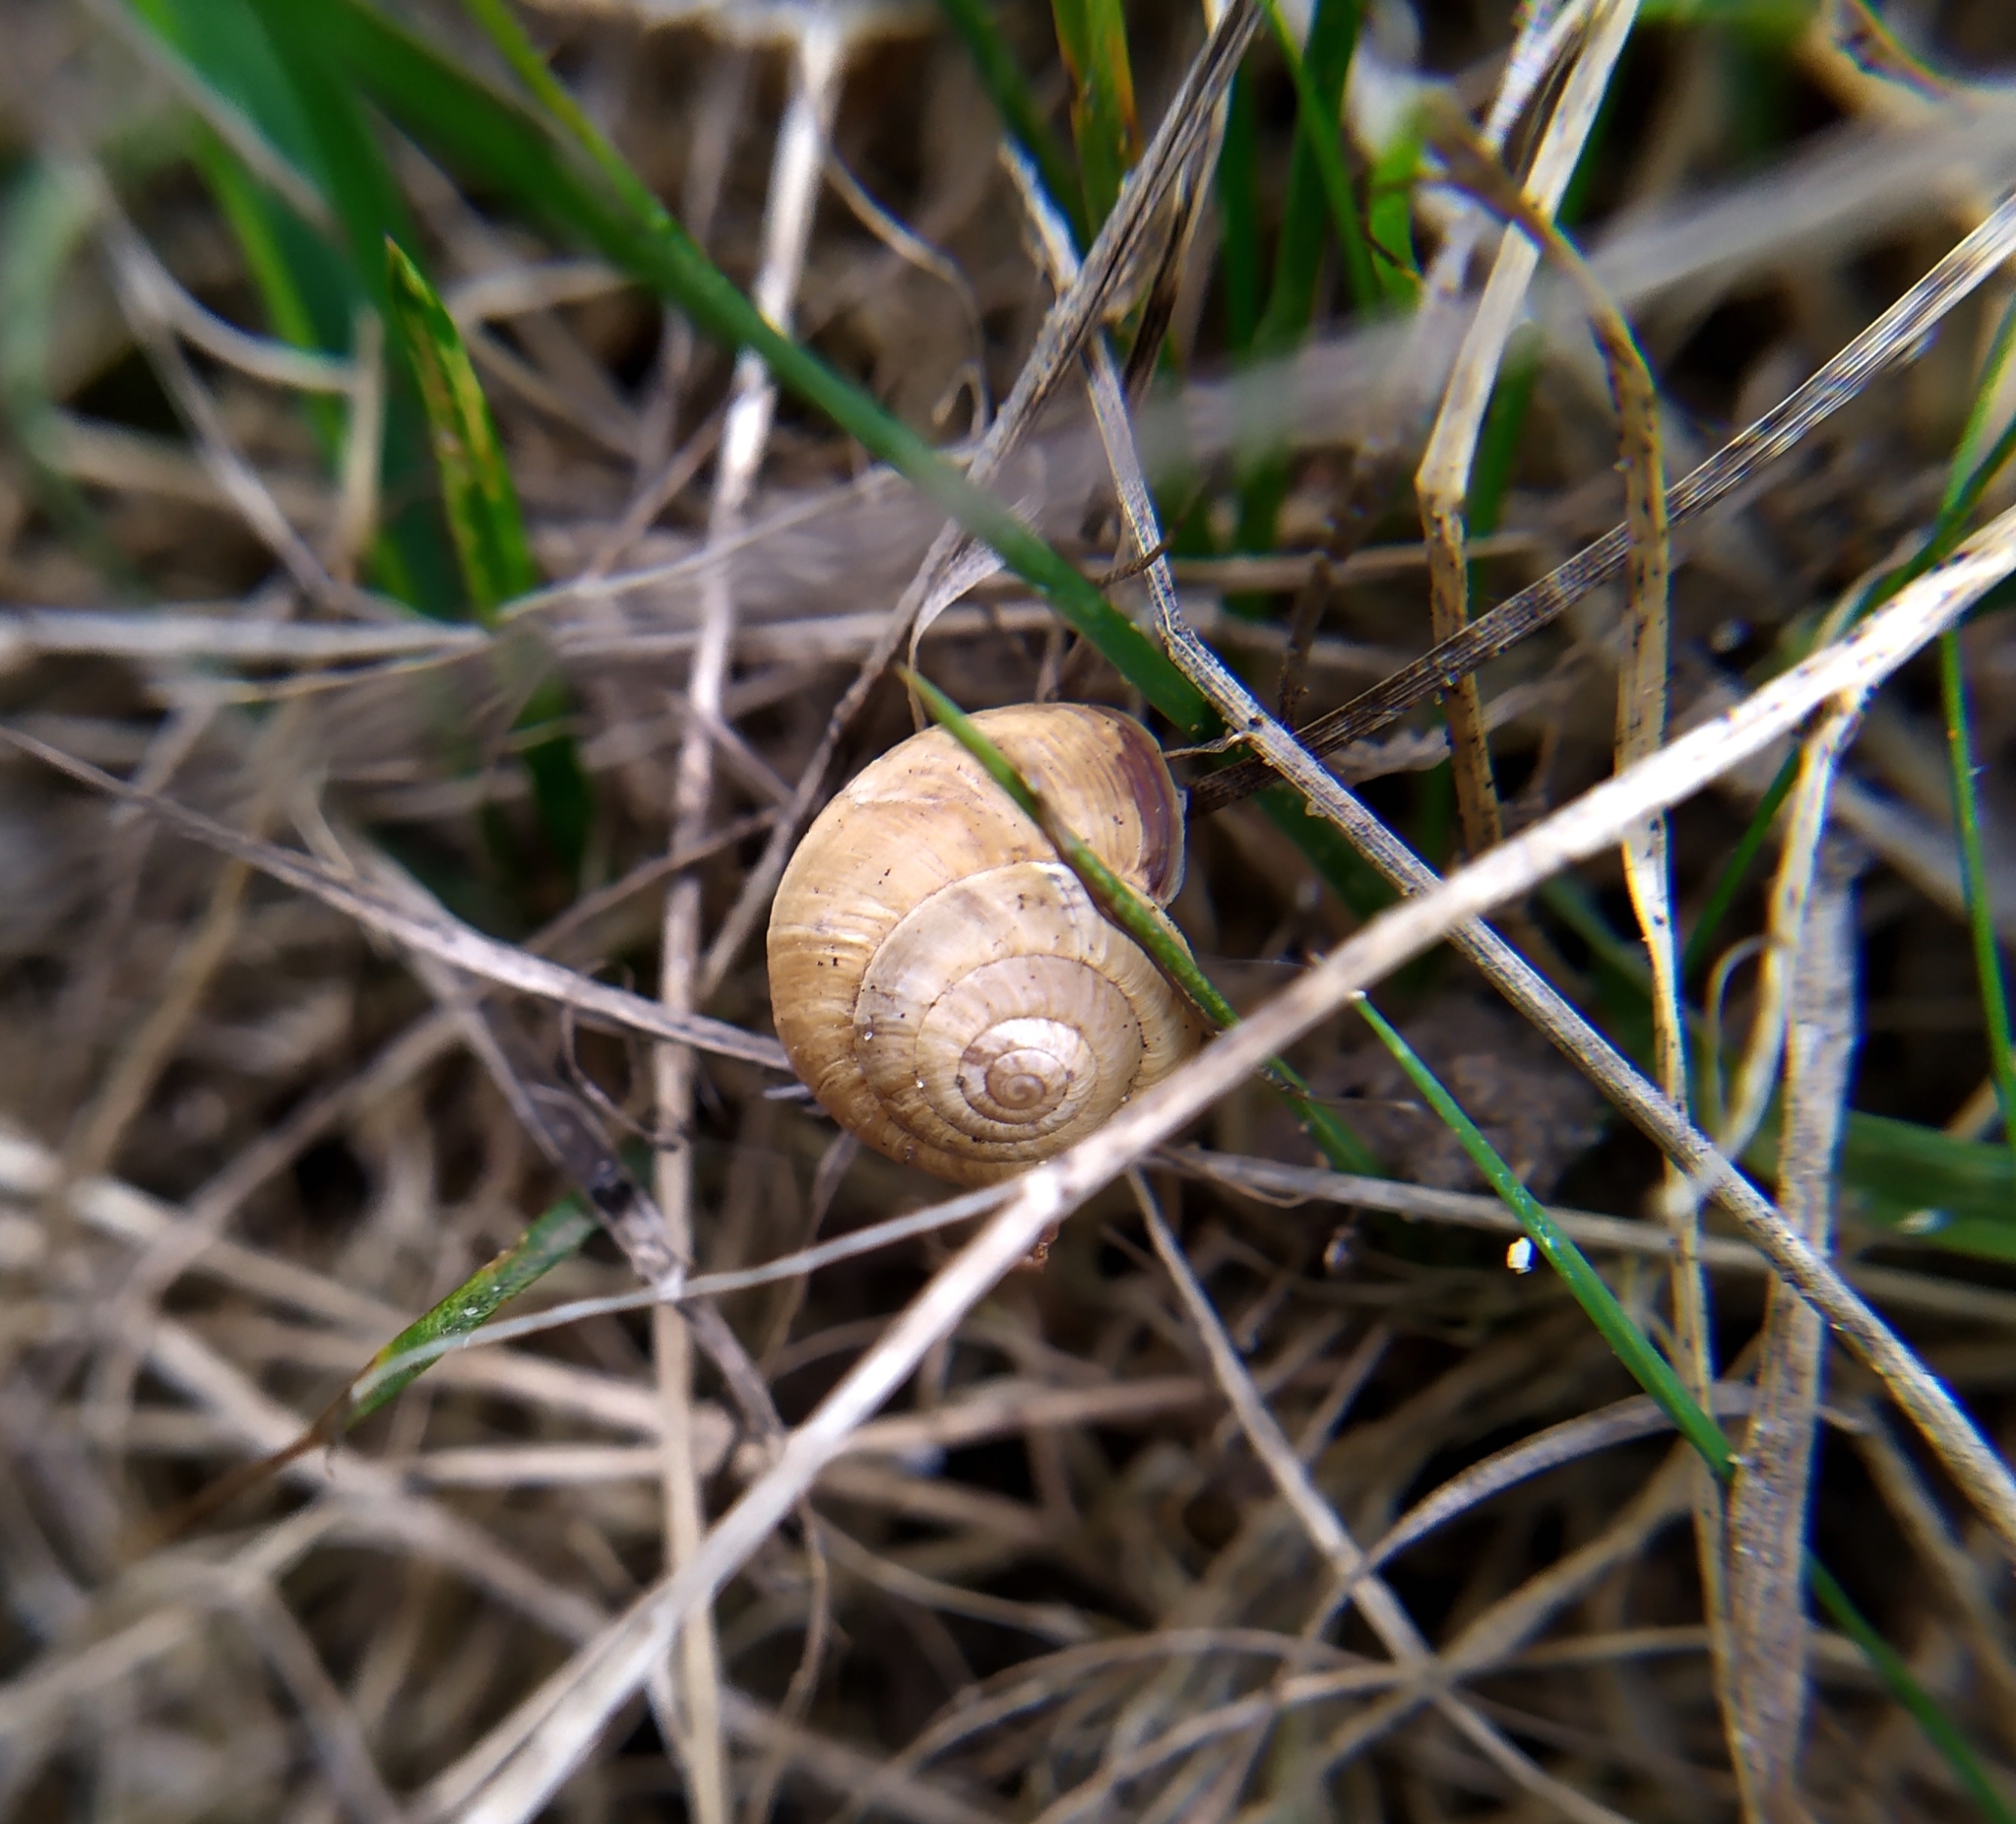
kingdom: Animalia
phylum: Mollusca
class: Gastropoda
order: Stylommatophora
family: Geomitridae
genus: Cernuella
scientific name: Cernuella virgata
